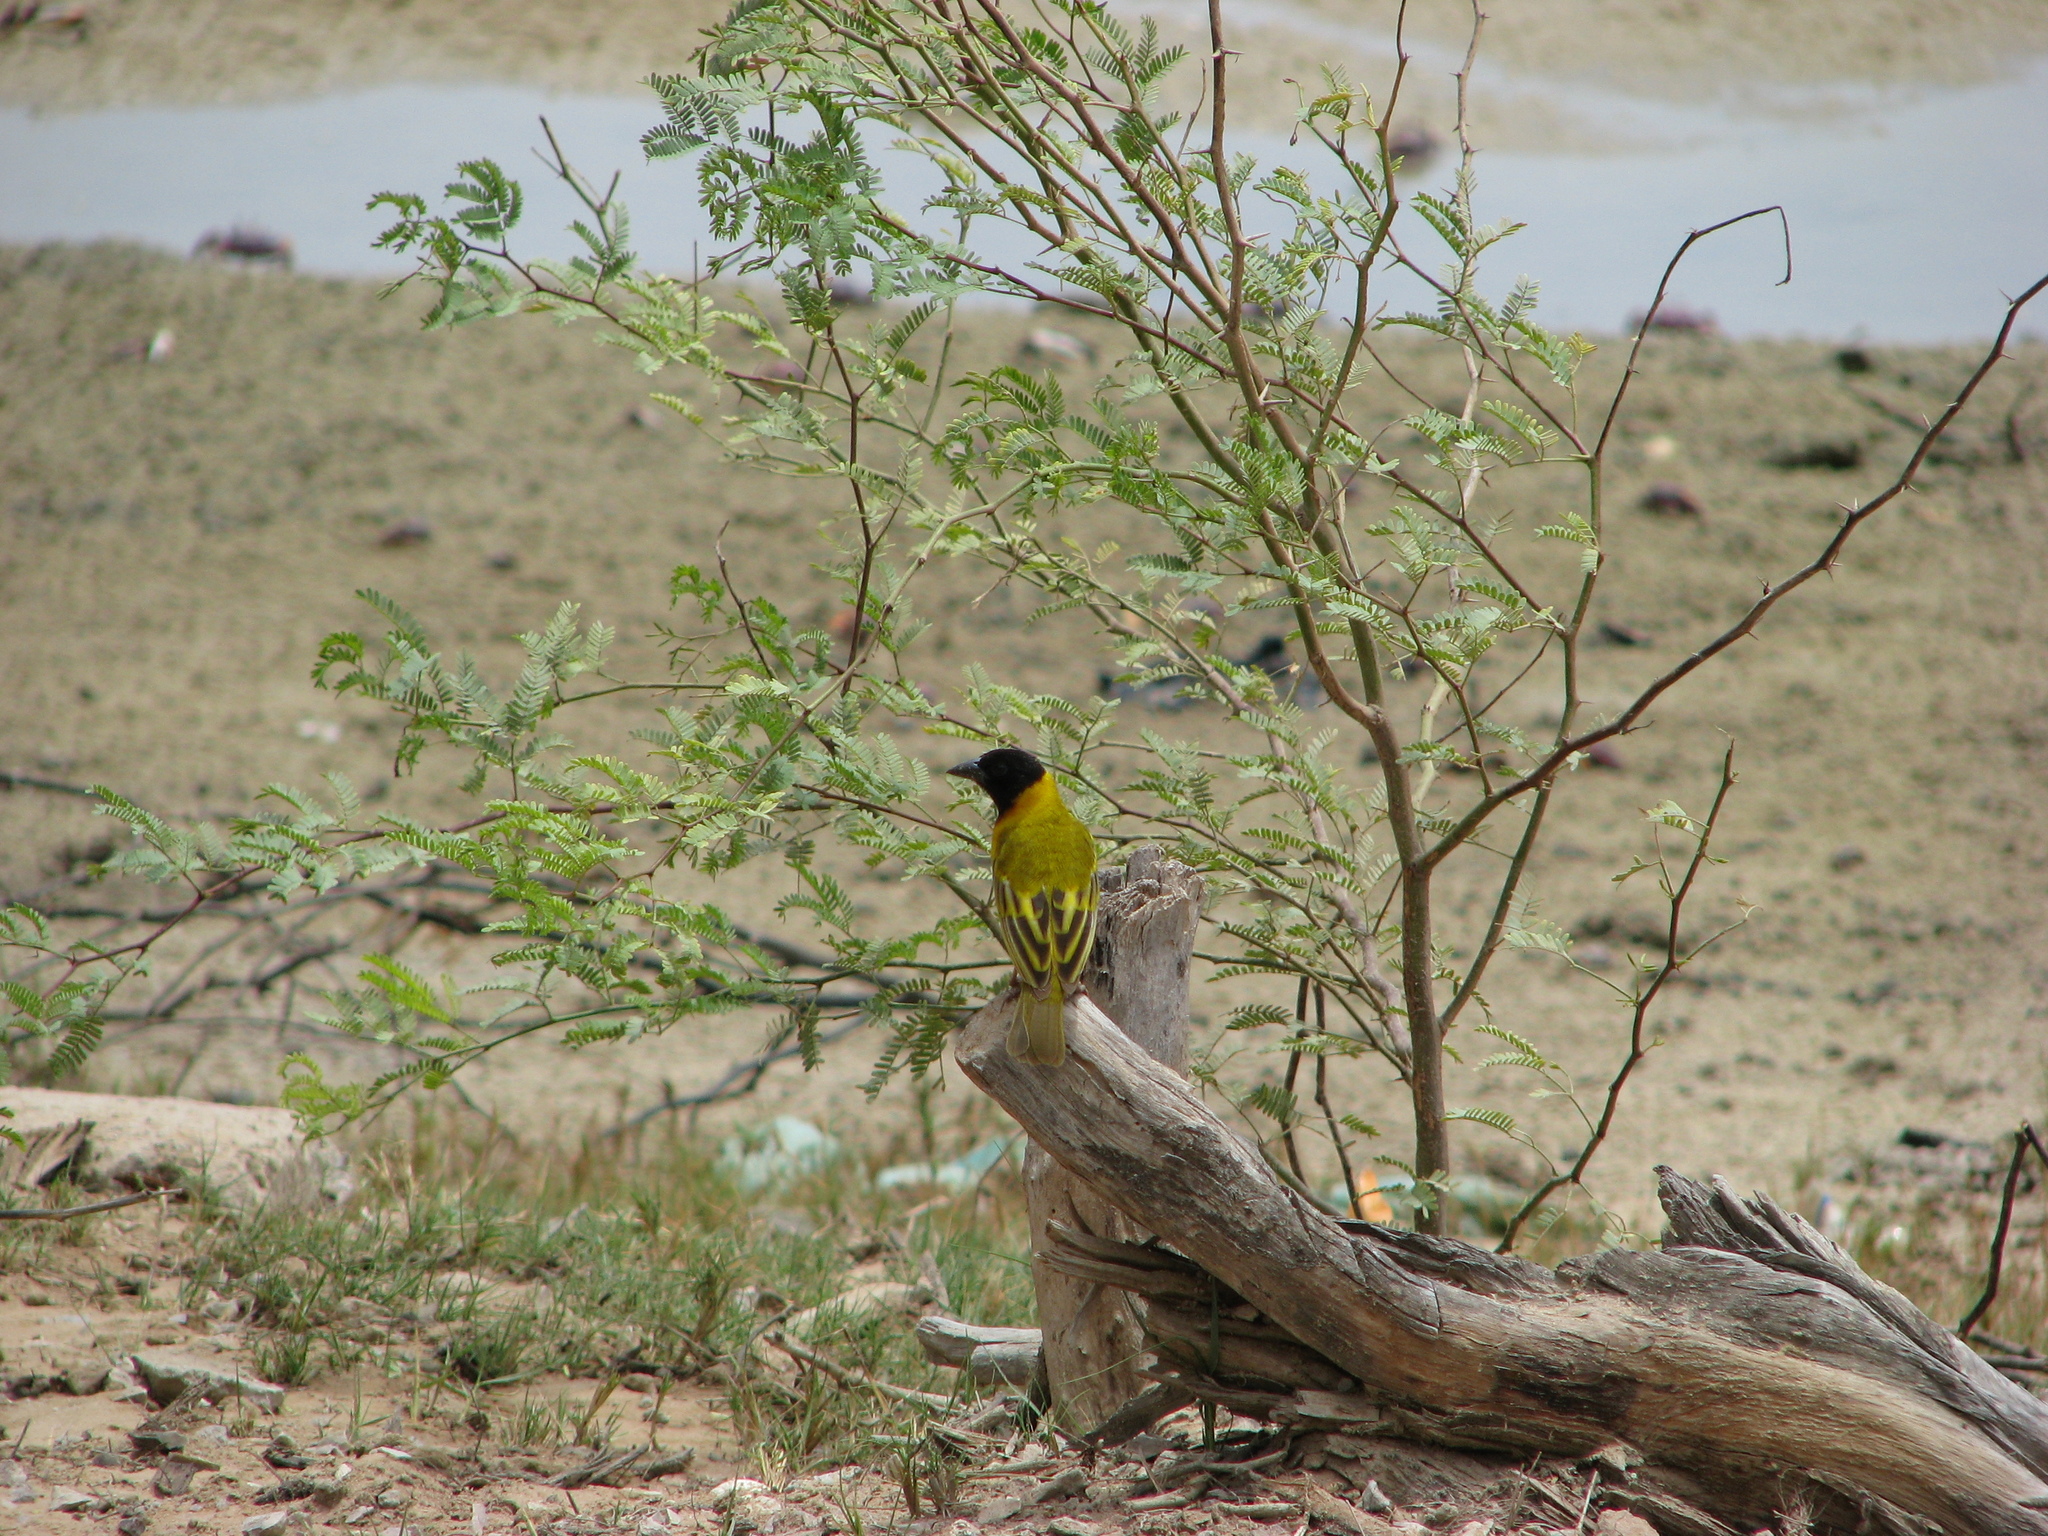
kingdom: Animalia
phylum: Chordata
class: Aves
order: Passeriformes
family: Ploceidae
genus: Ploceus
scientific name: Ploceus melanocephalus
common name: Black-headed weaver
